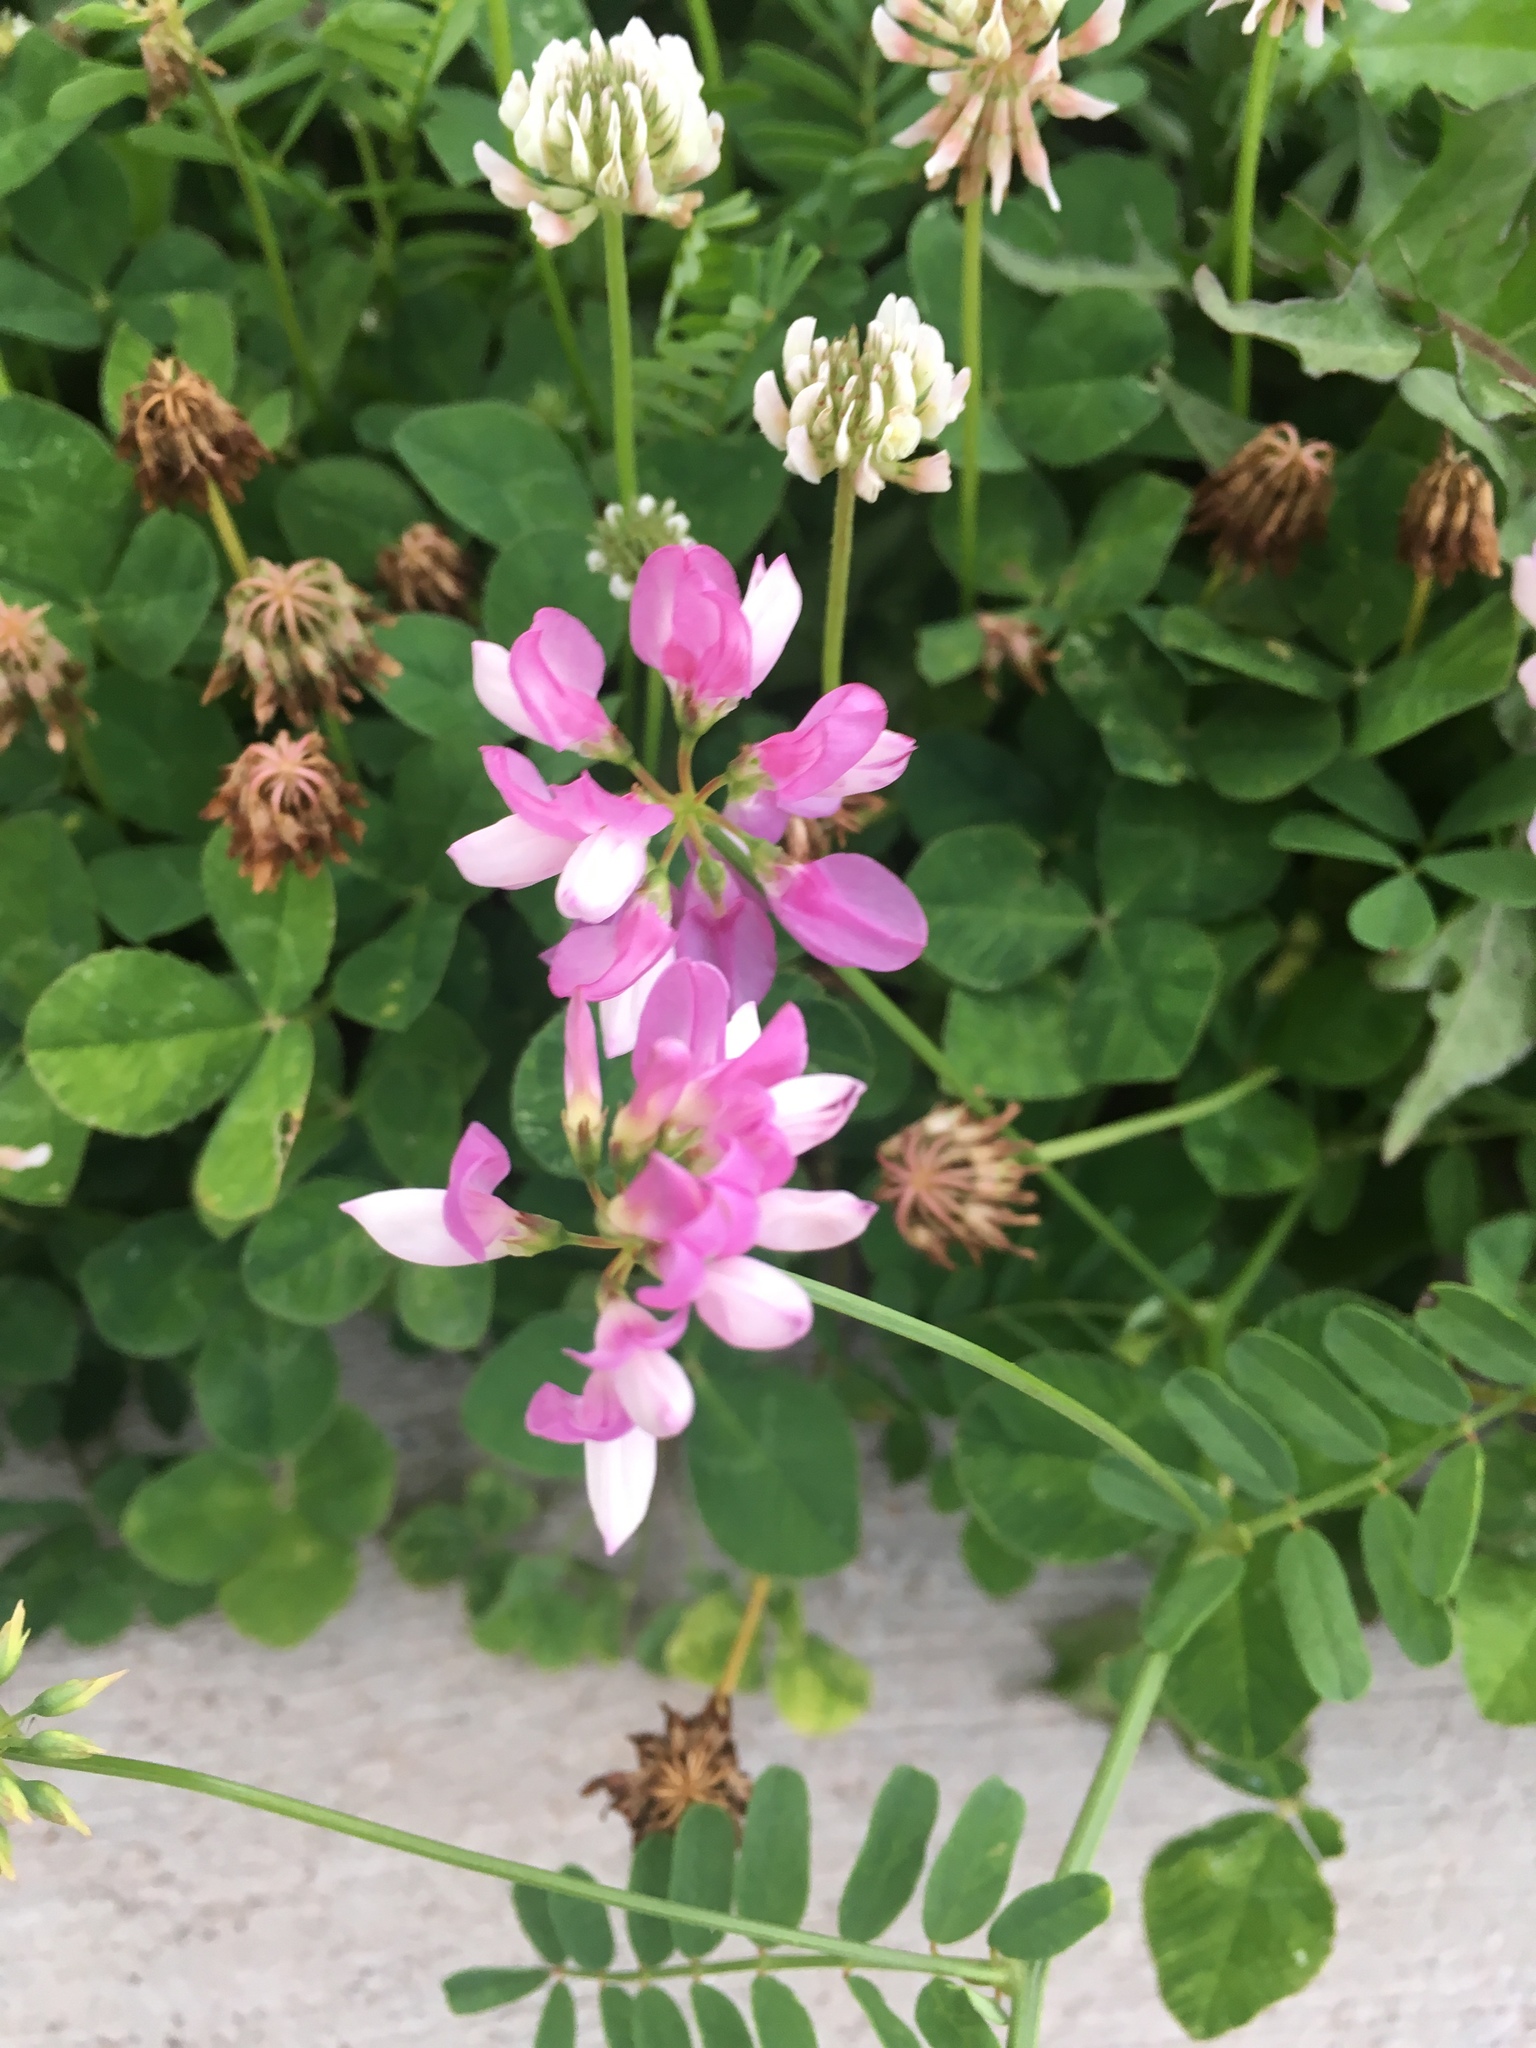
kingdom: Plantae
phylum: Tracheophyta
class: Magnoliopsida
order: Fabales
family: Fabaceae
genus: Coronilla
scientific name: Coronilla varia
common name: Crownvetch
